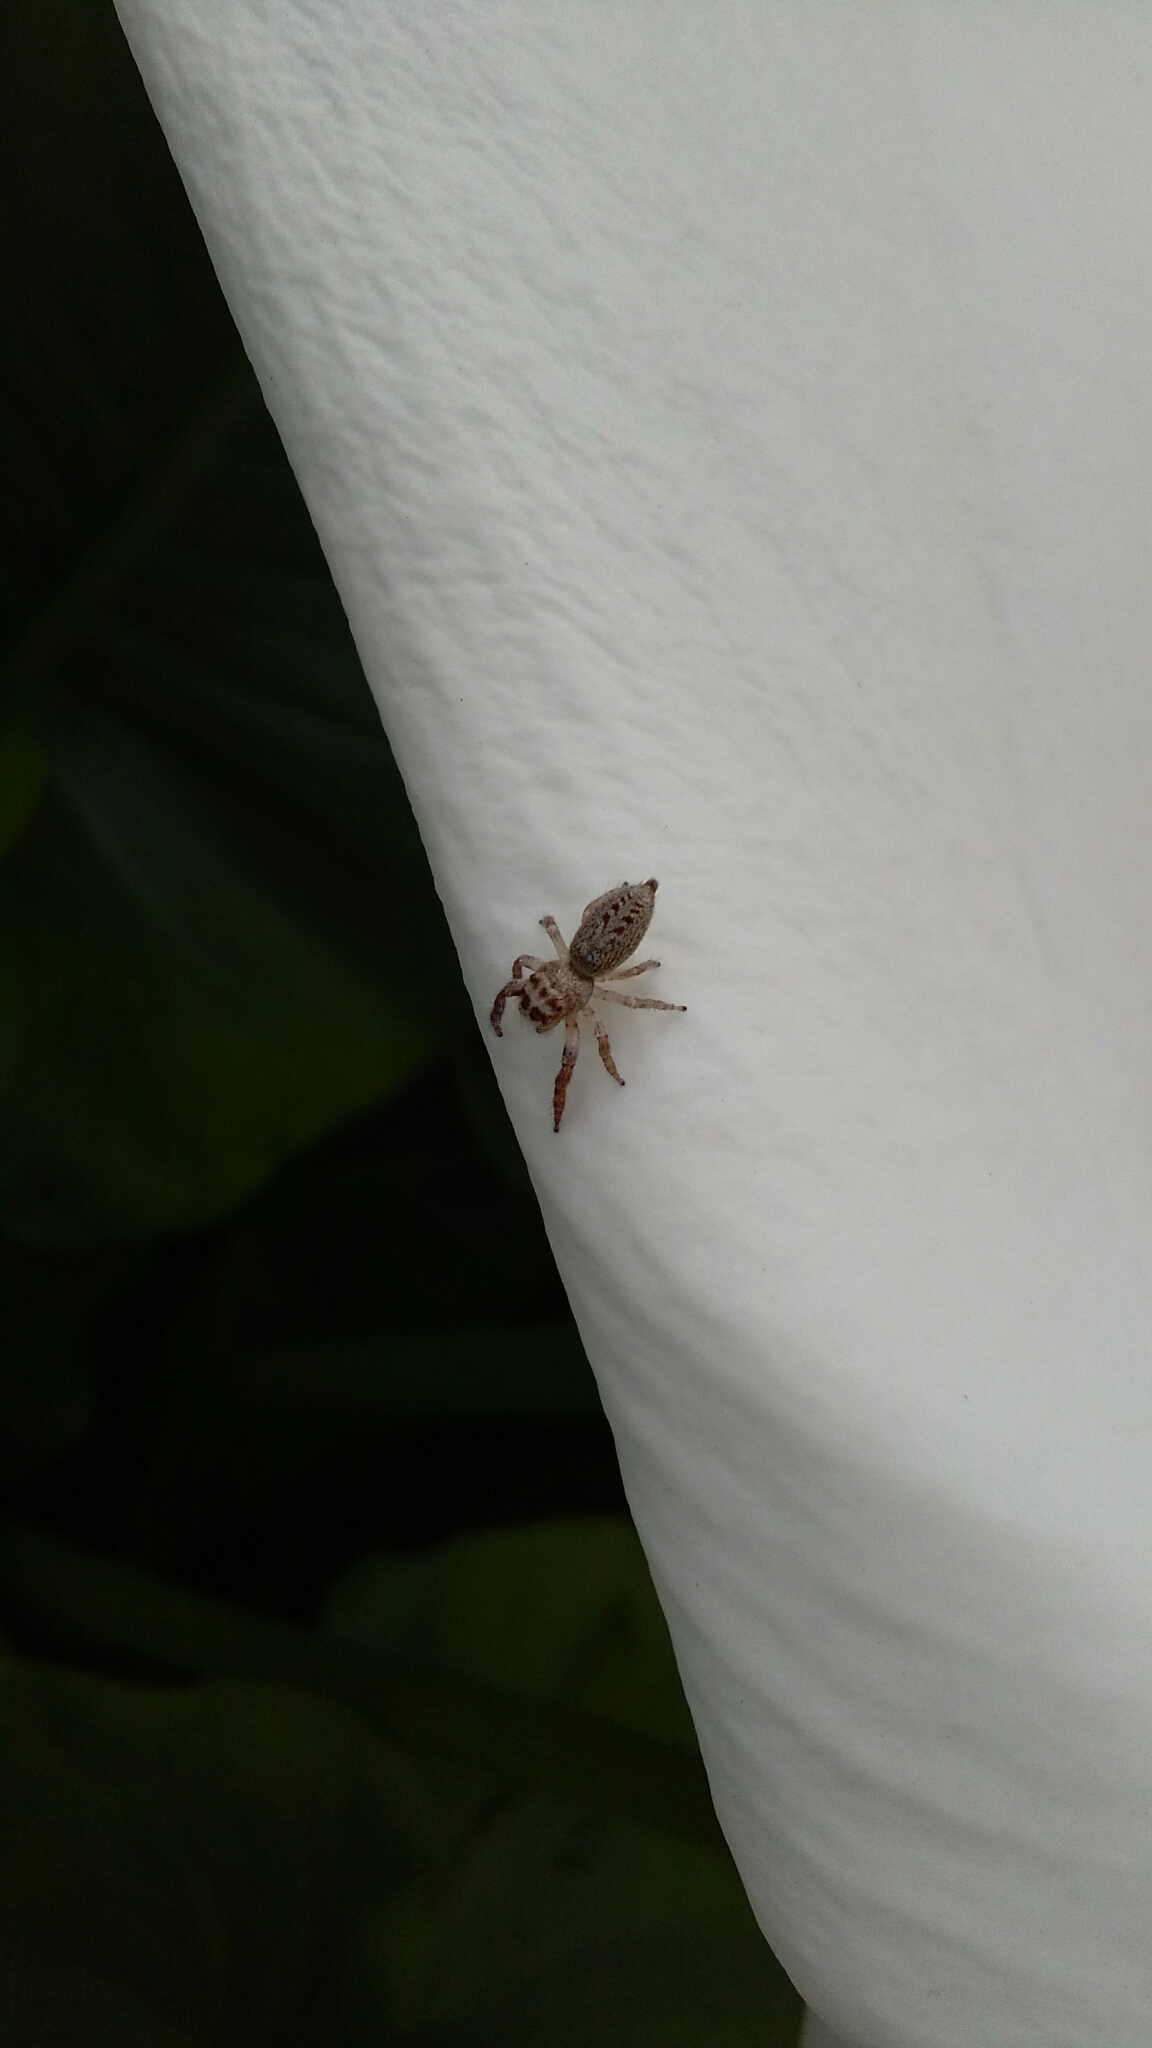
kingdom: Animalia
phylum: Arthropoda
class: Arachnida
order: Araneae
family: Salticidae
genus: Opisthoncus
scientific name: Opisthoncus polyphemus
